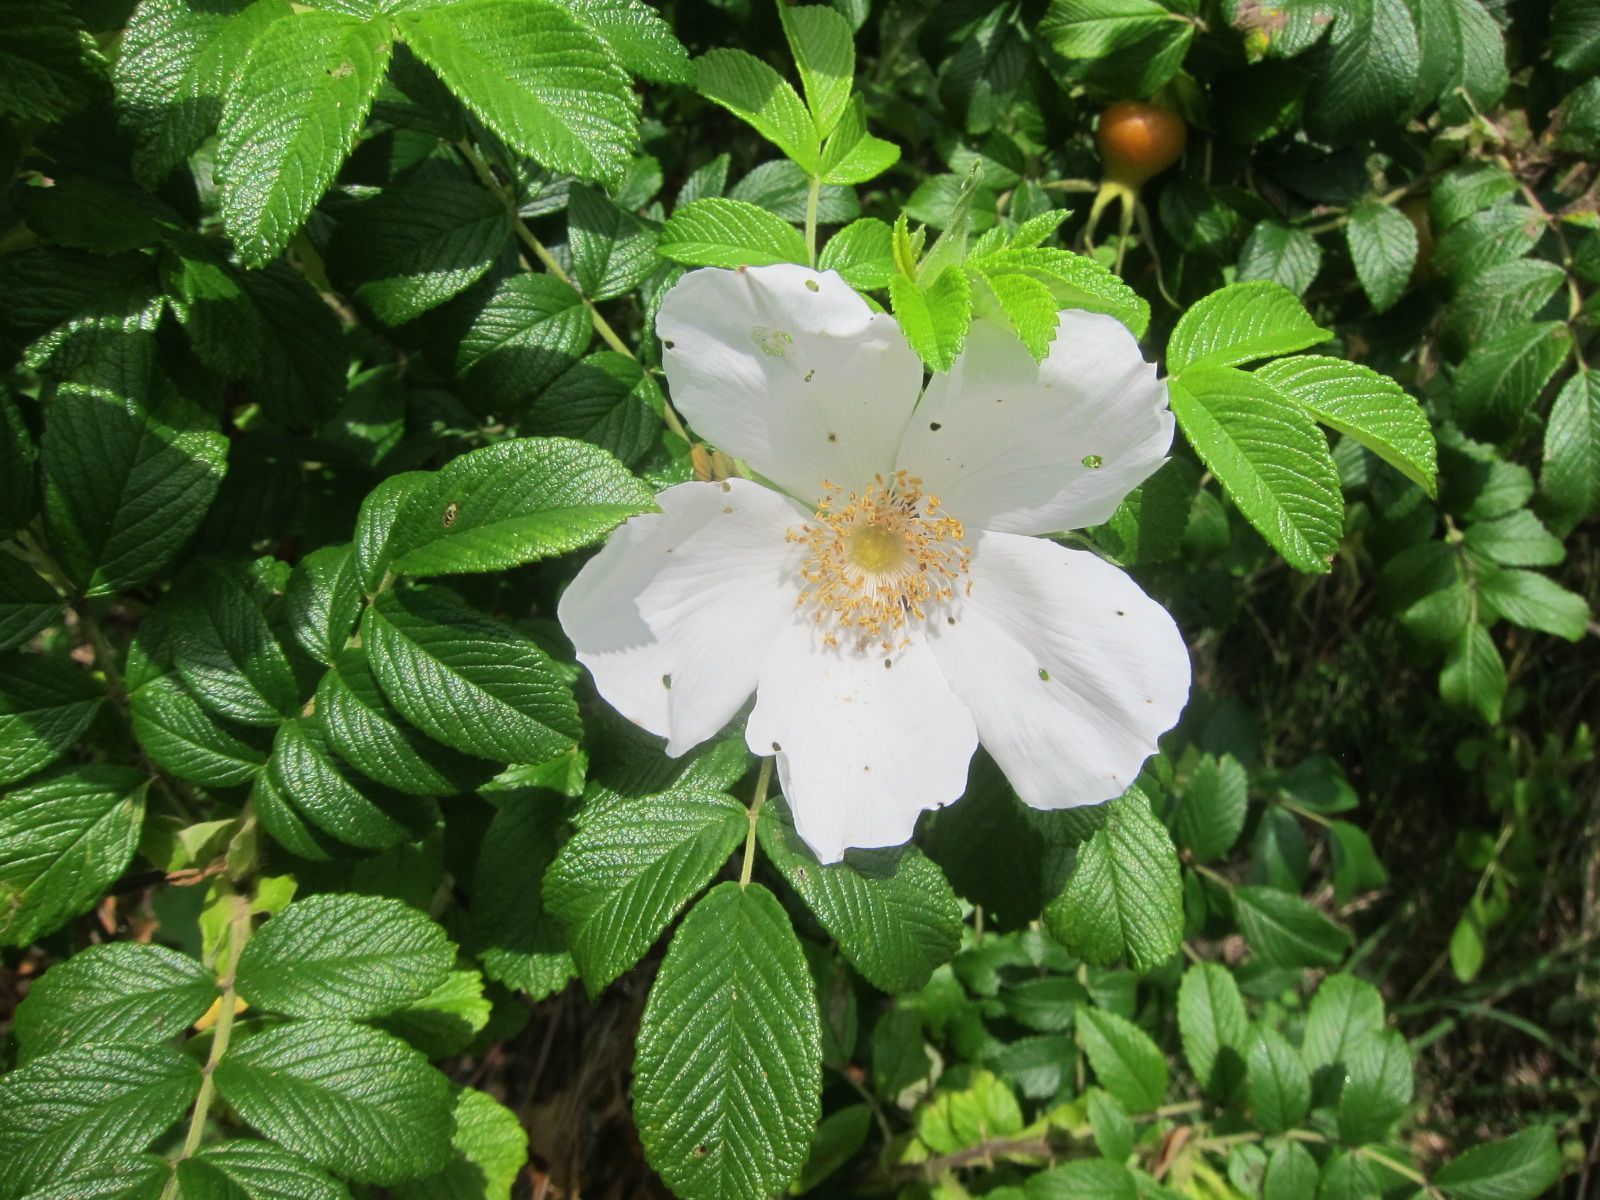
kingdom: Plantae
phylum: Tracheophyta
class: Magnoliopsida
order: Rosales
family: Rosaceae
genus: Rosa
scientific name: Rosa rugosa
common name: Japanese rose
